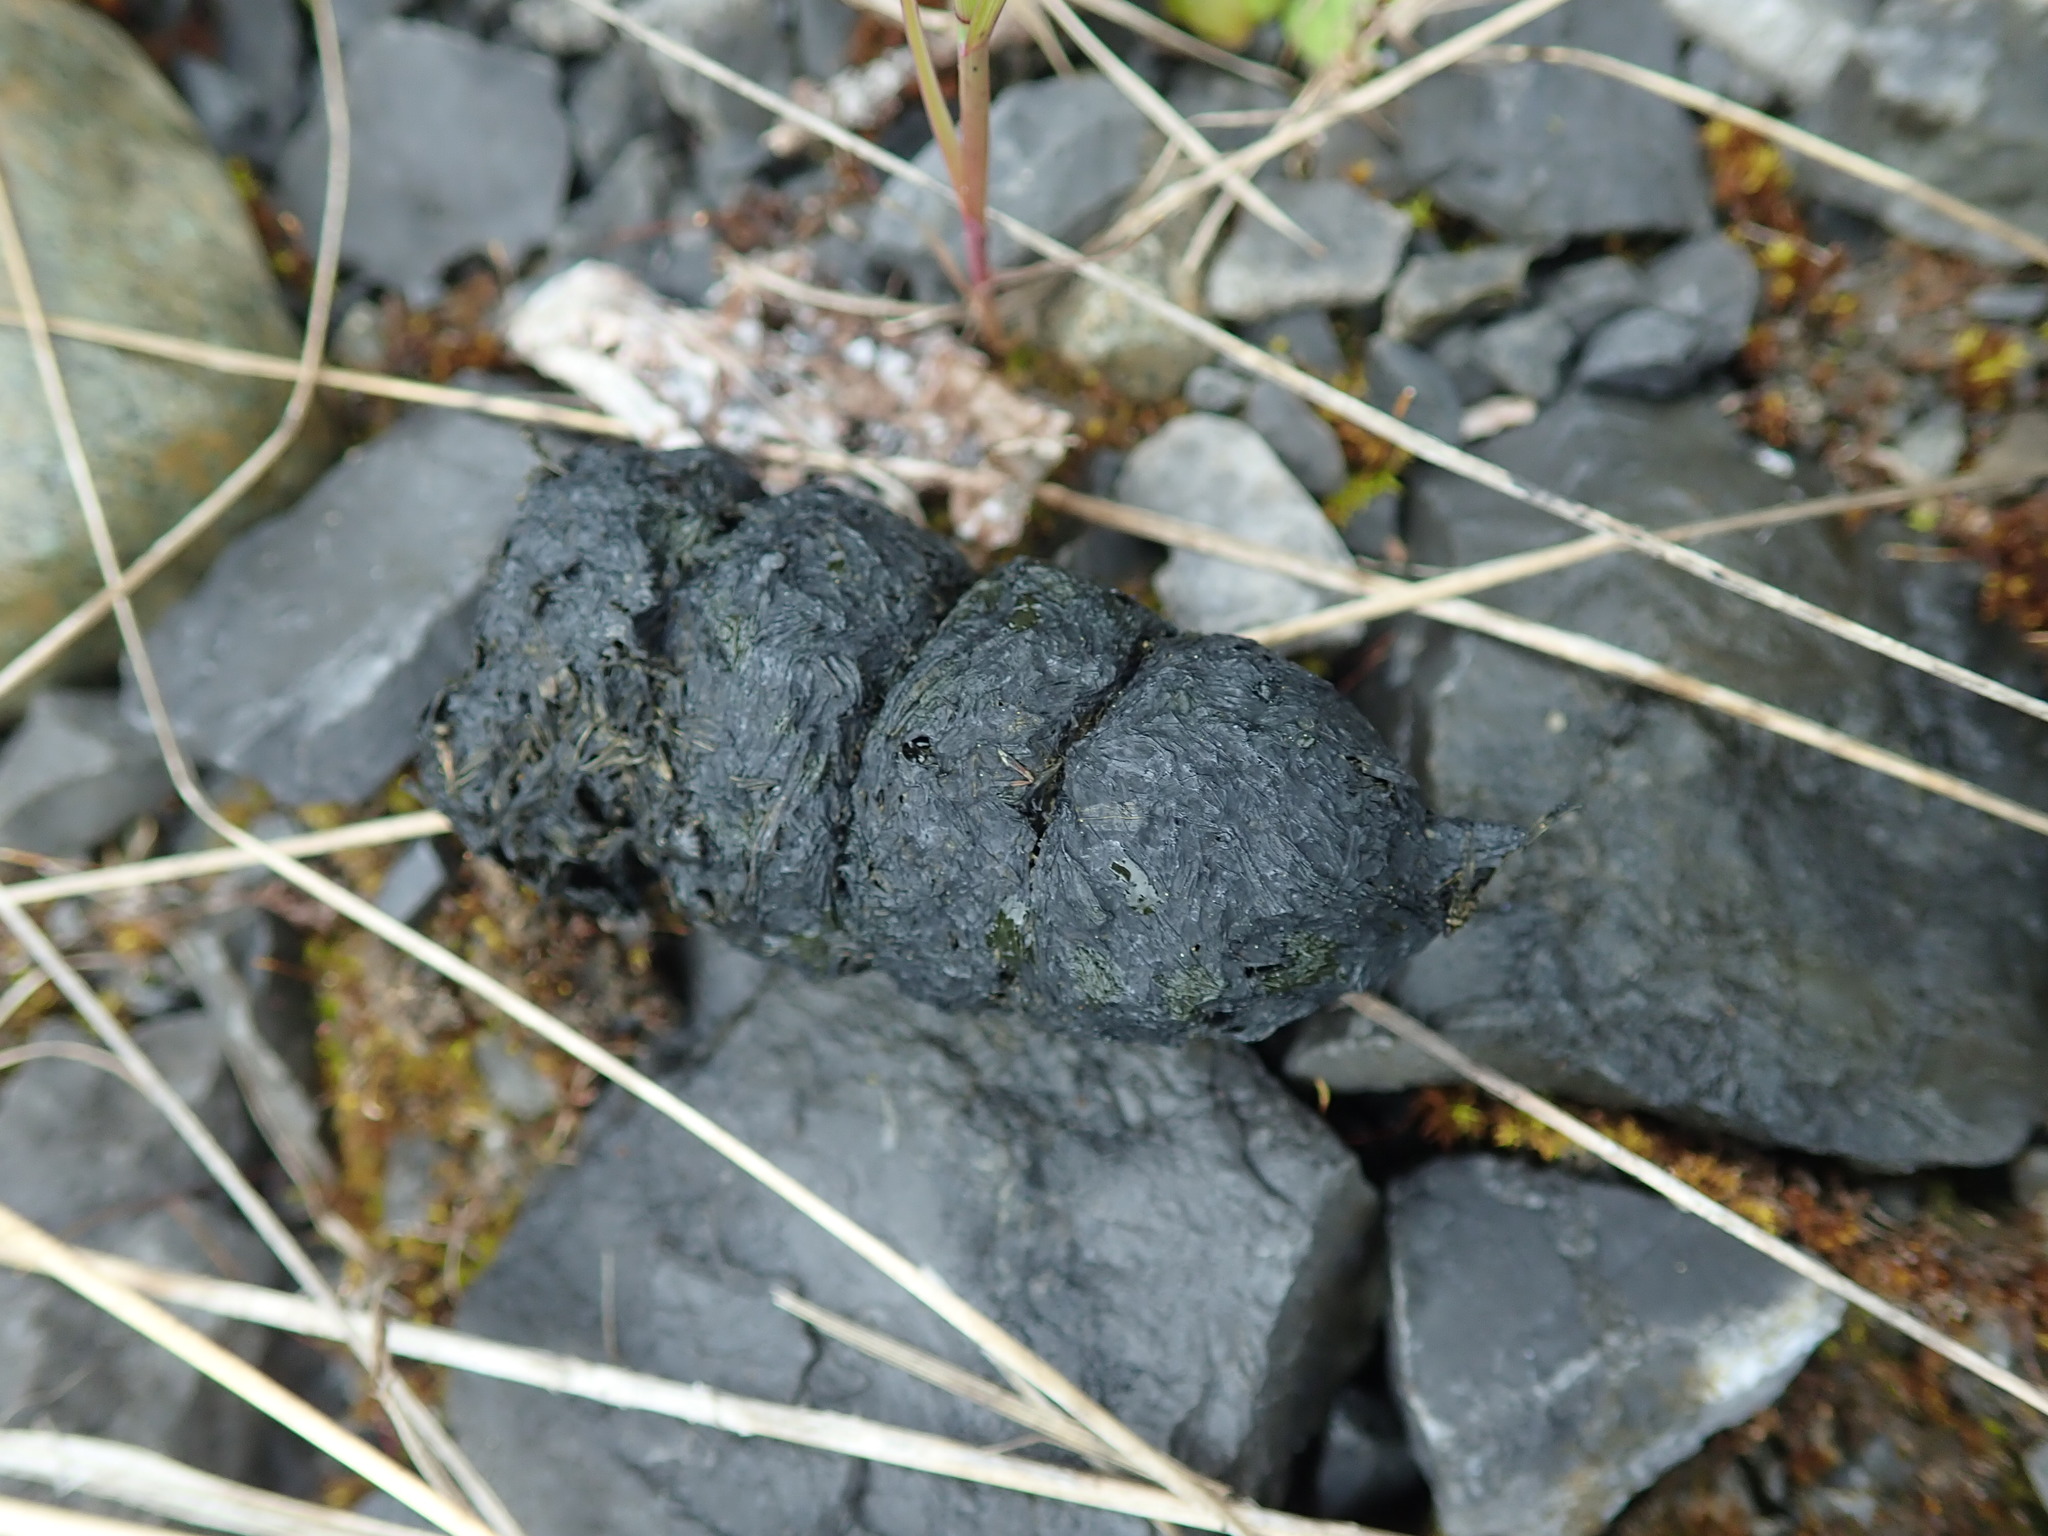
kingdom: Animalia
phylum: Chordata
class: Mammalia
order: Carnivora
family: Ursidae
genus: Ursus
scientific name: Ursus americanus
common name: American black bear
